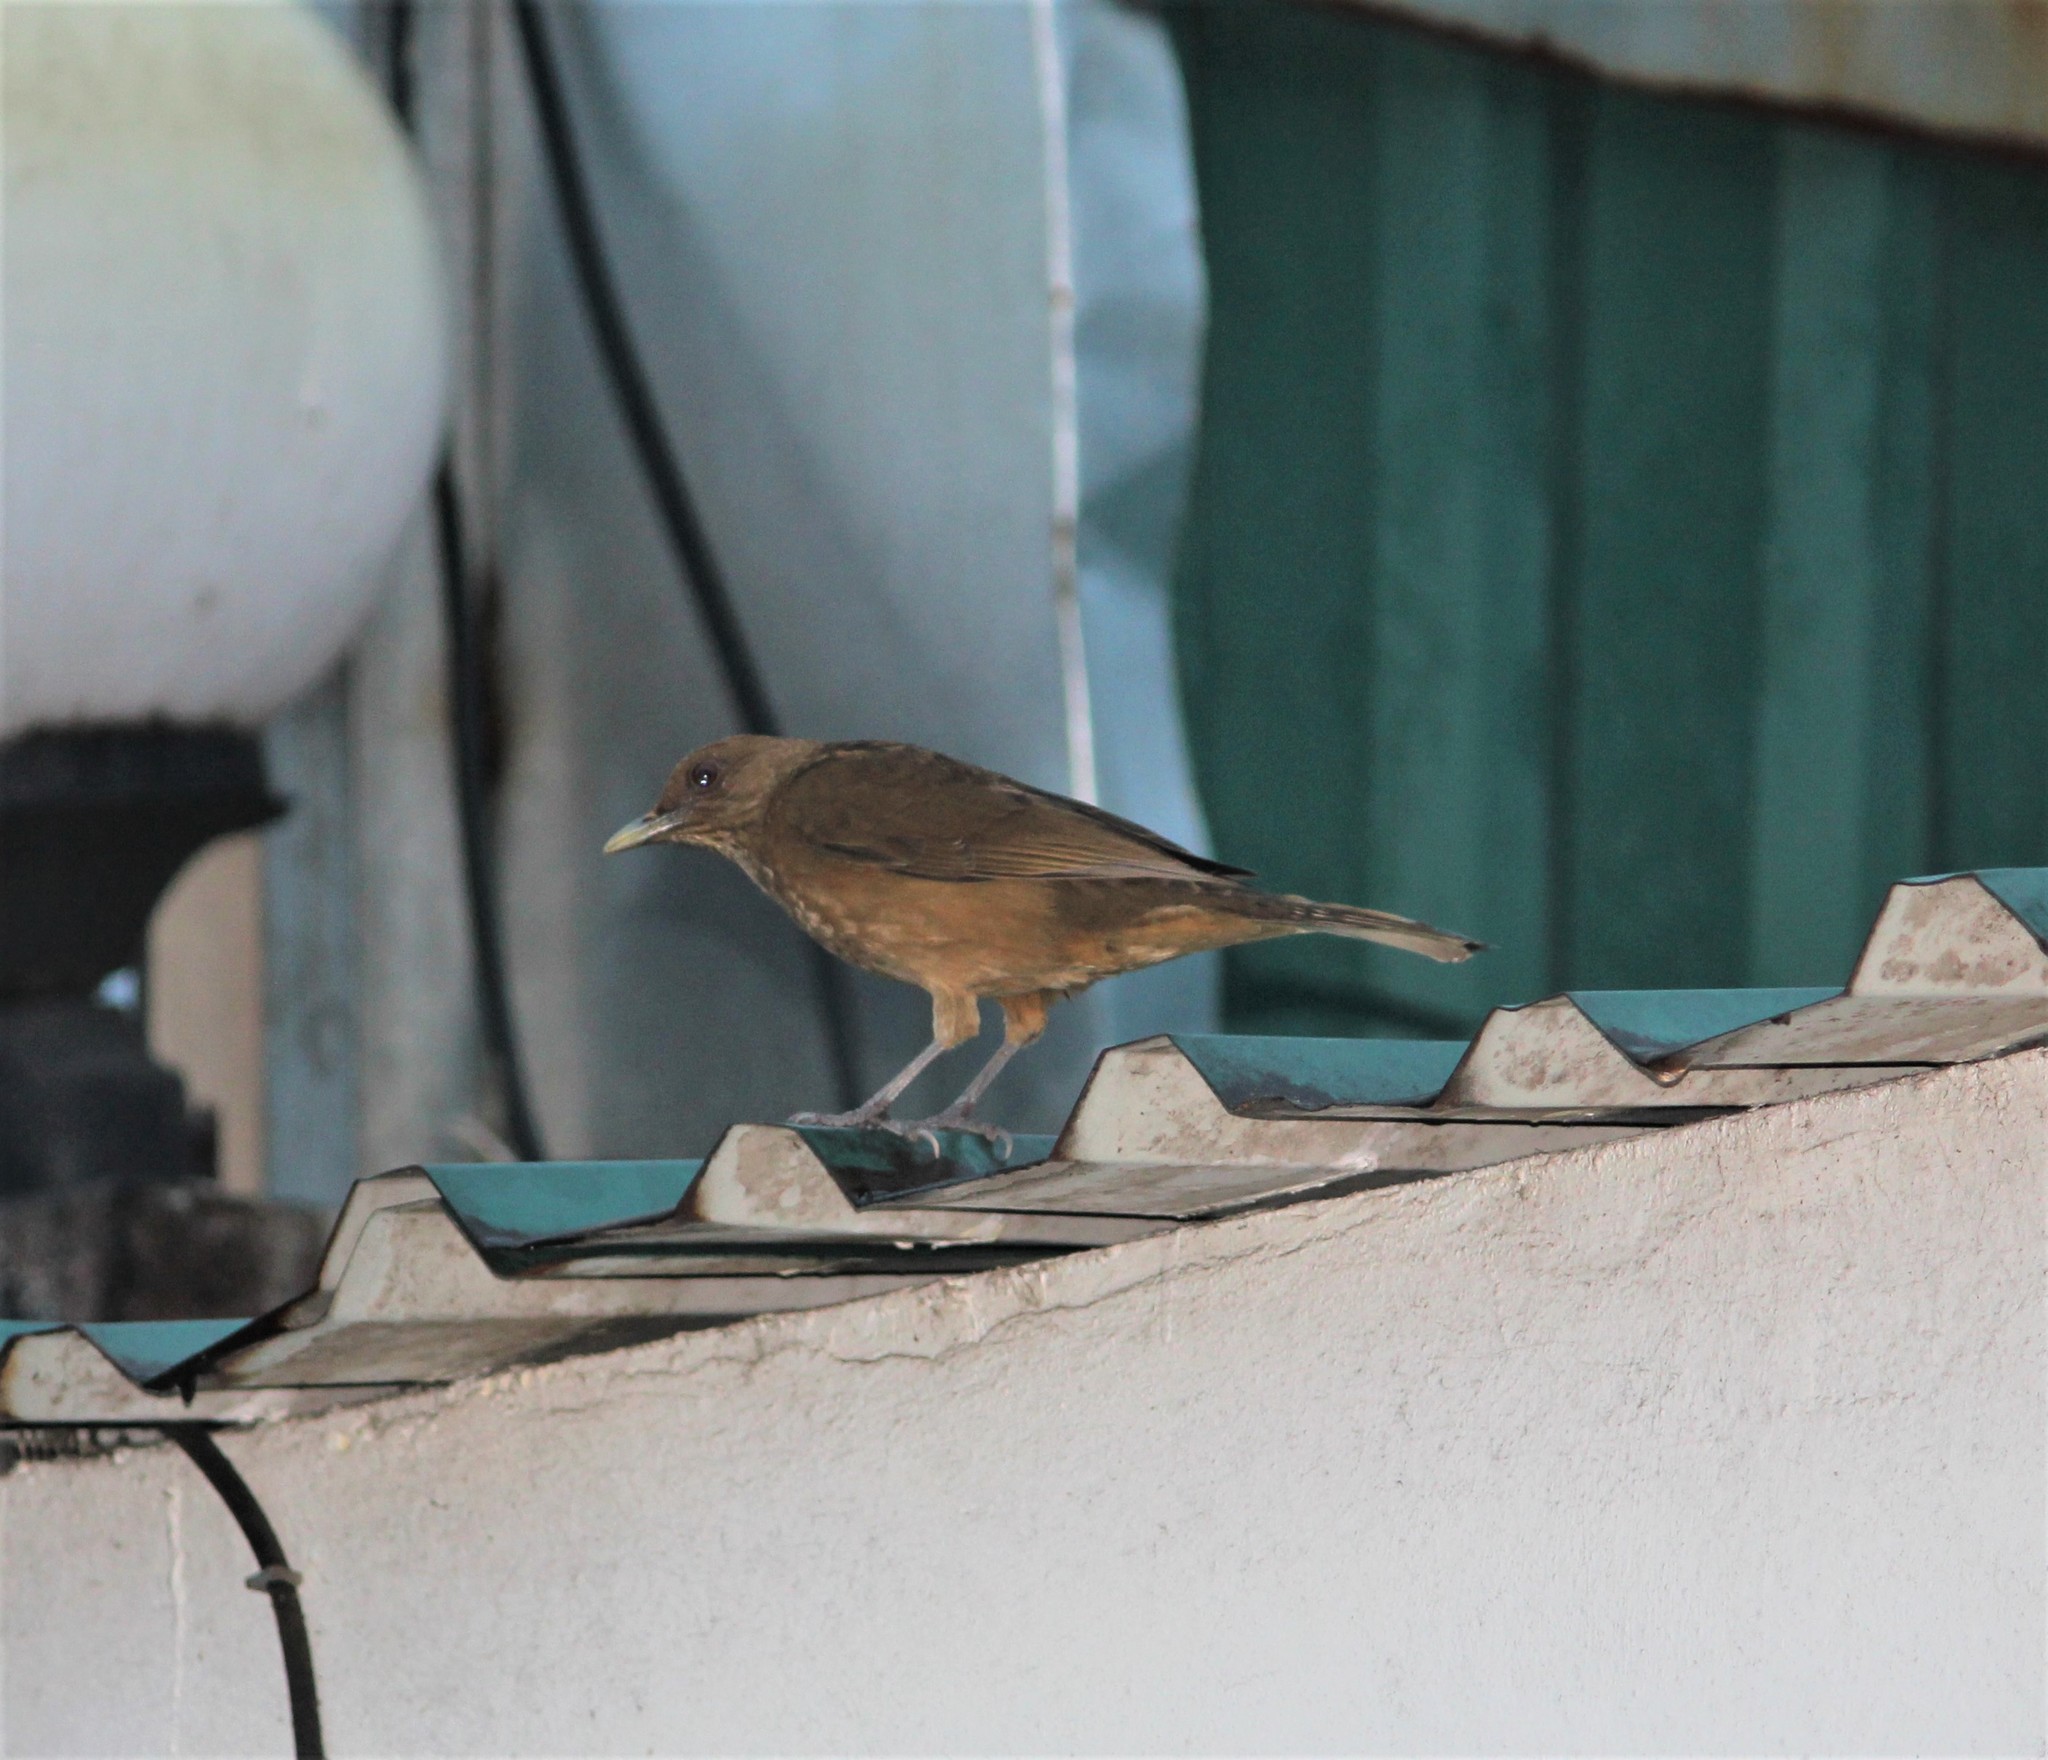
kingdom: Animalia
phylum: Chordata
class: Aves
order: Passeriformes
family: Turdidae
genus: Turdus
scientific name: Turdus grayi
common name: Clay-colored thrush
